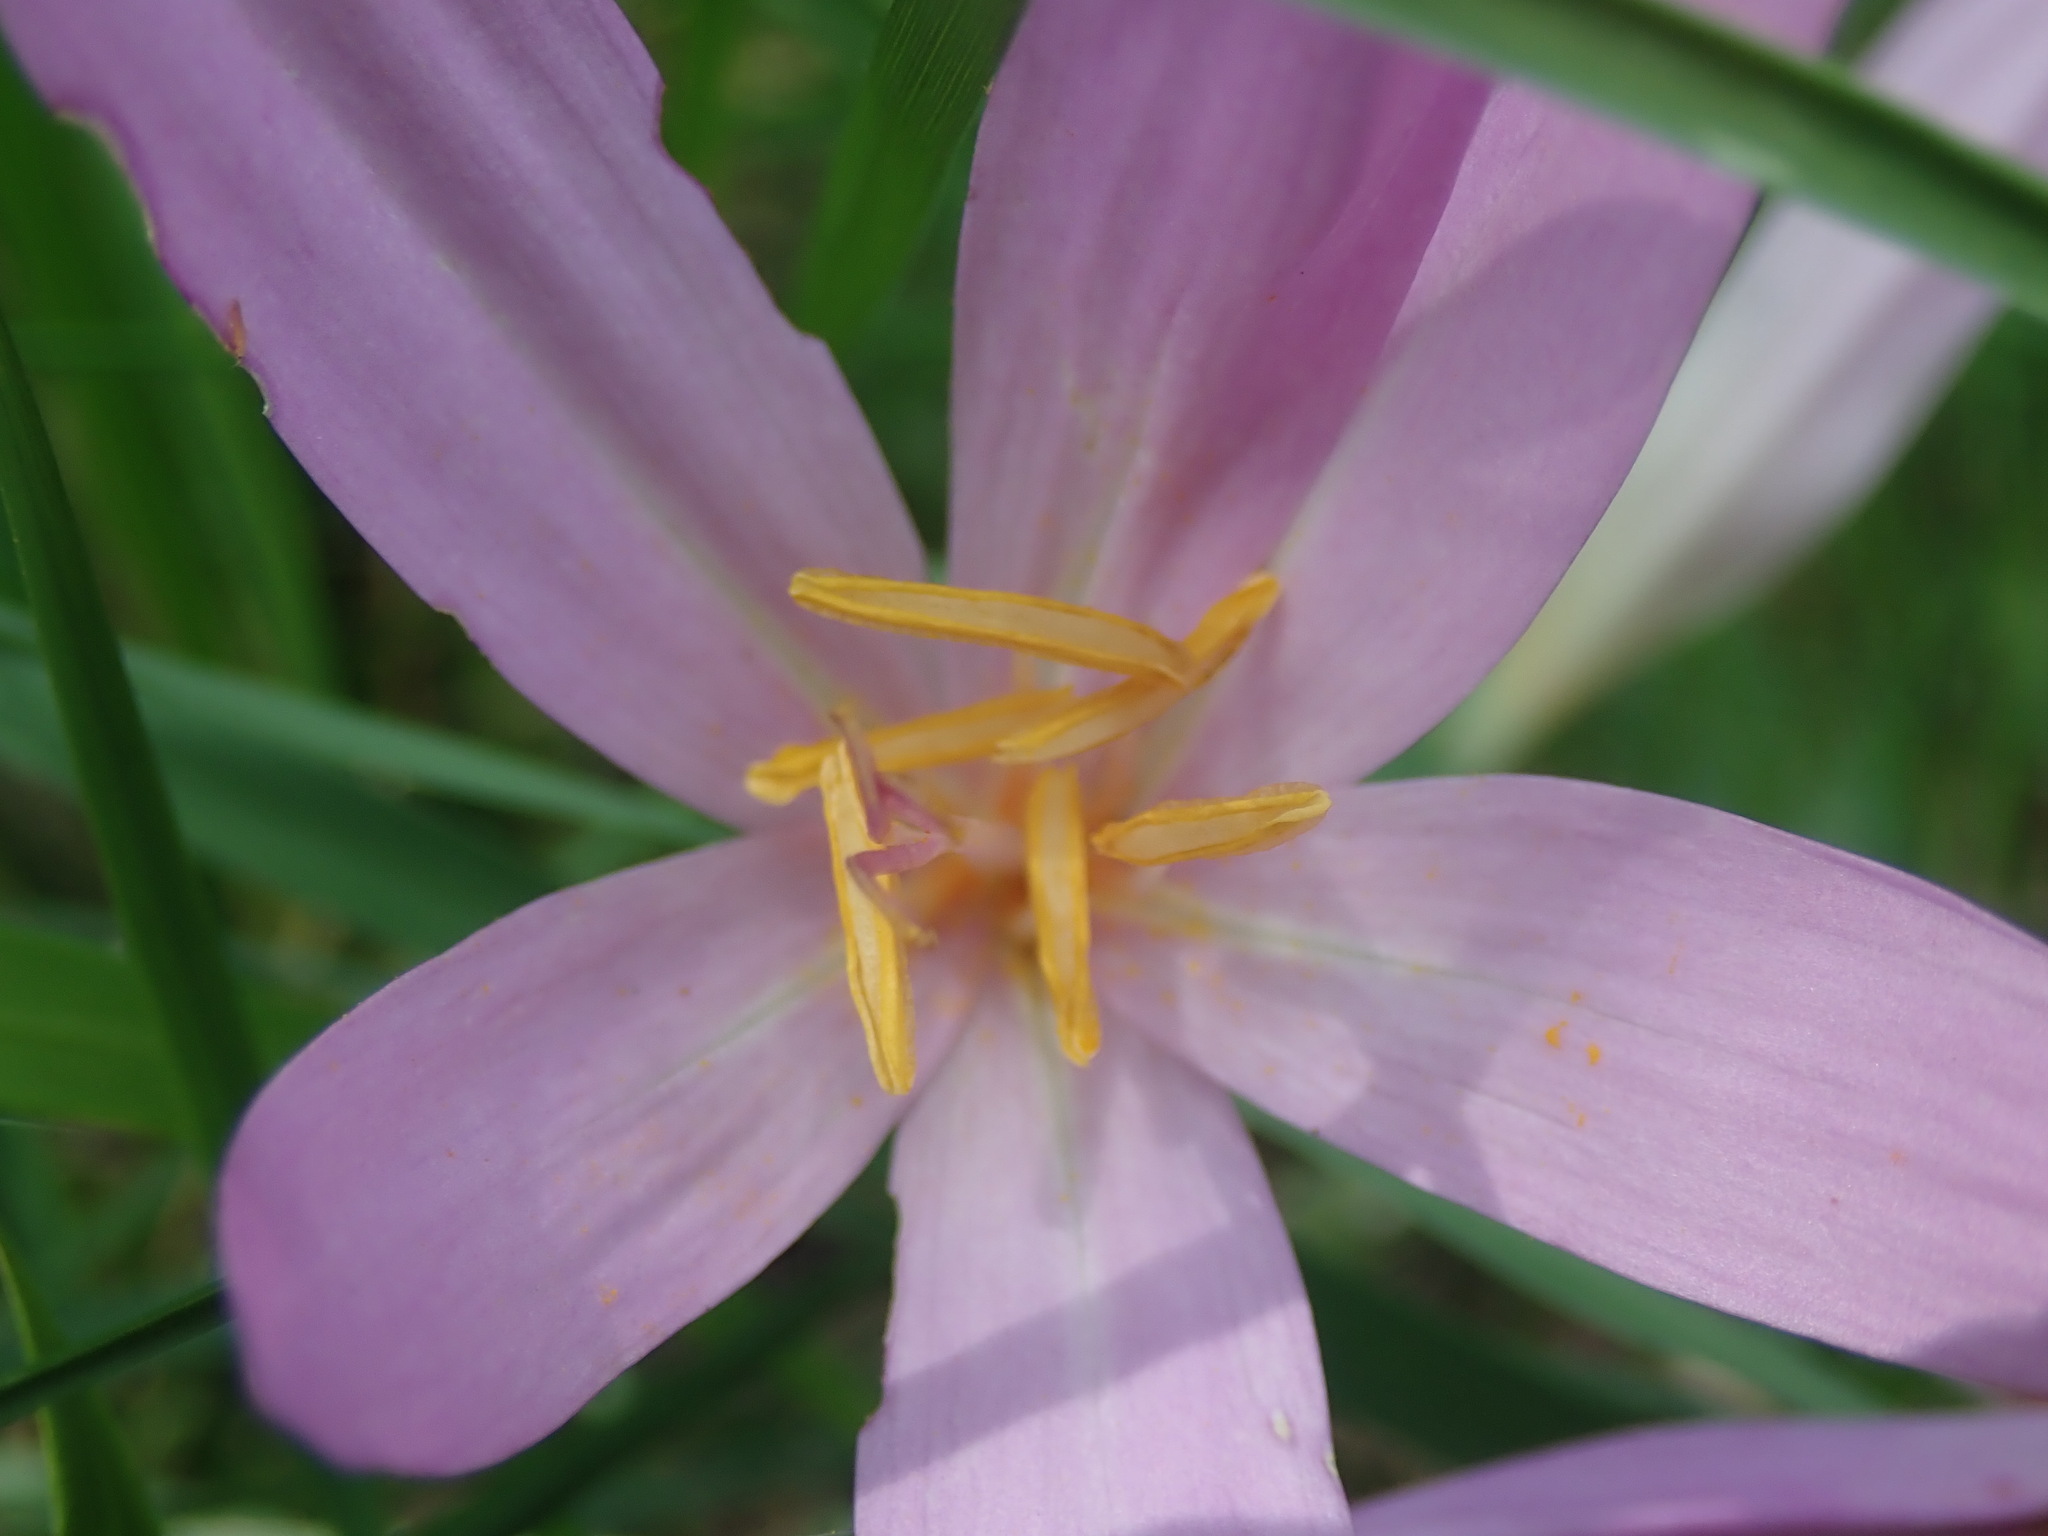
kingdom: Plantae
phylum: Tracheophyta
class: Liliopsida
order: Liliales
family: Colchicaceae
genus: Colchicum
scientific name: Colchicum autumnale
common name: Autumn crocus
